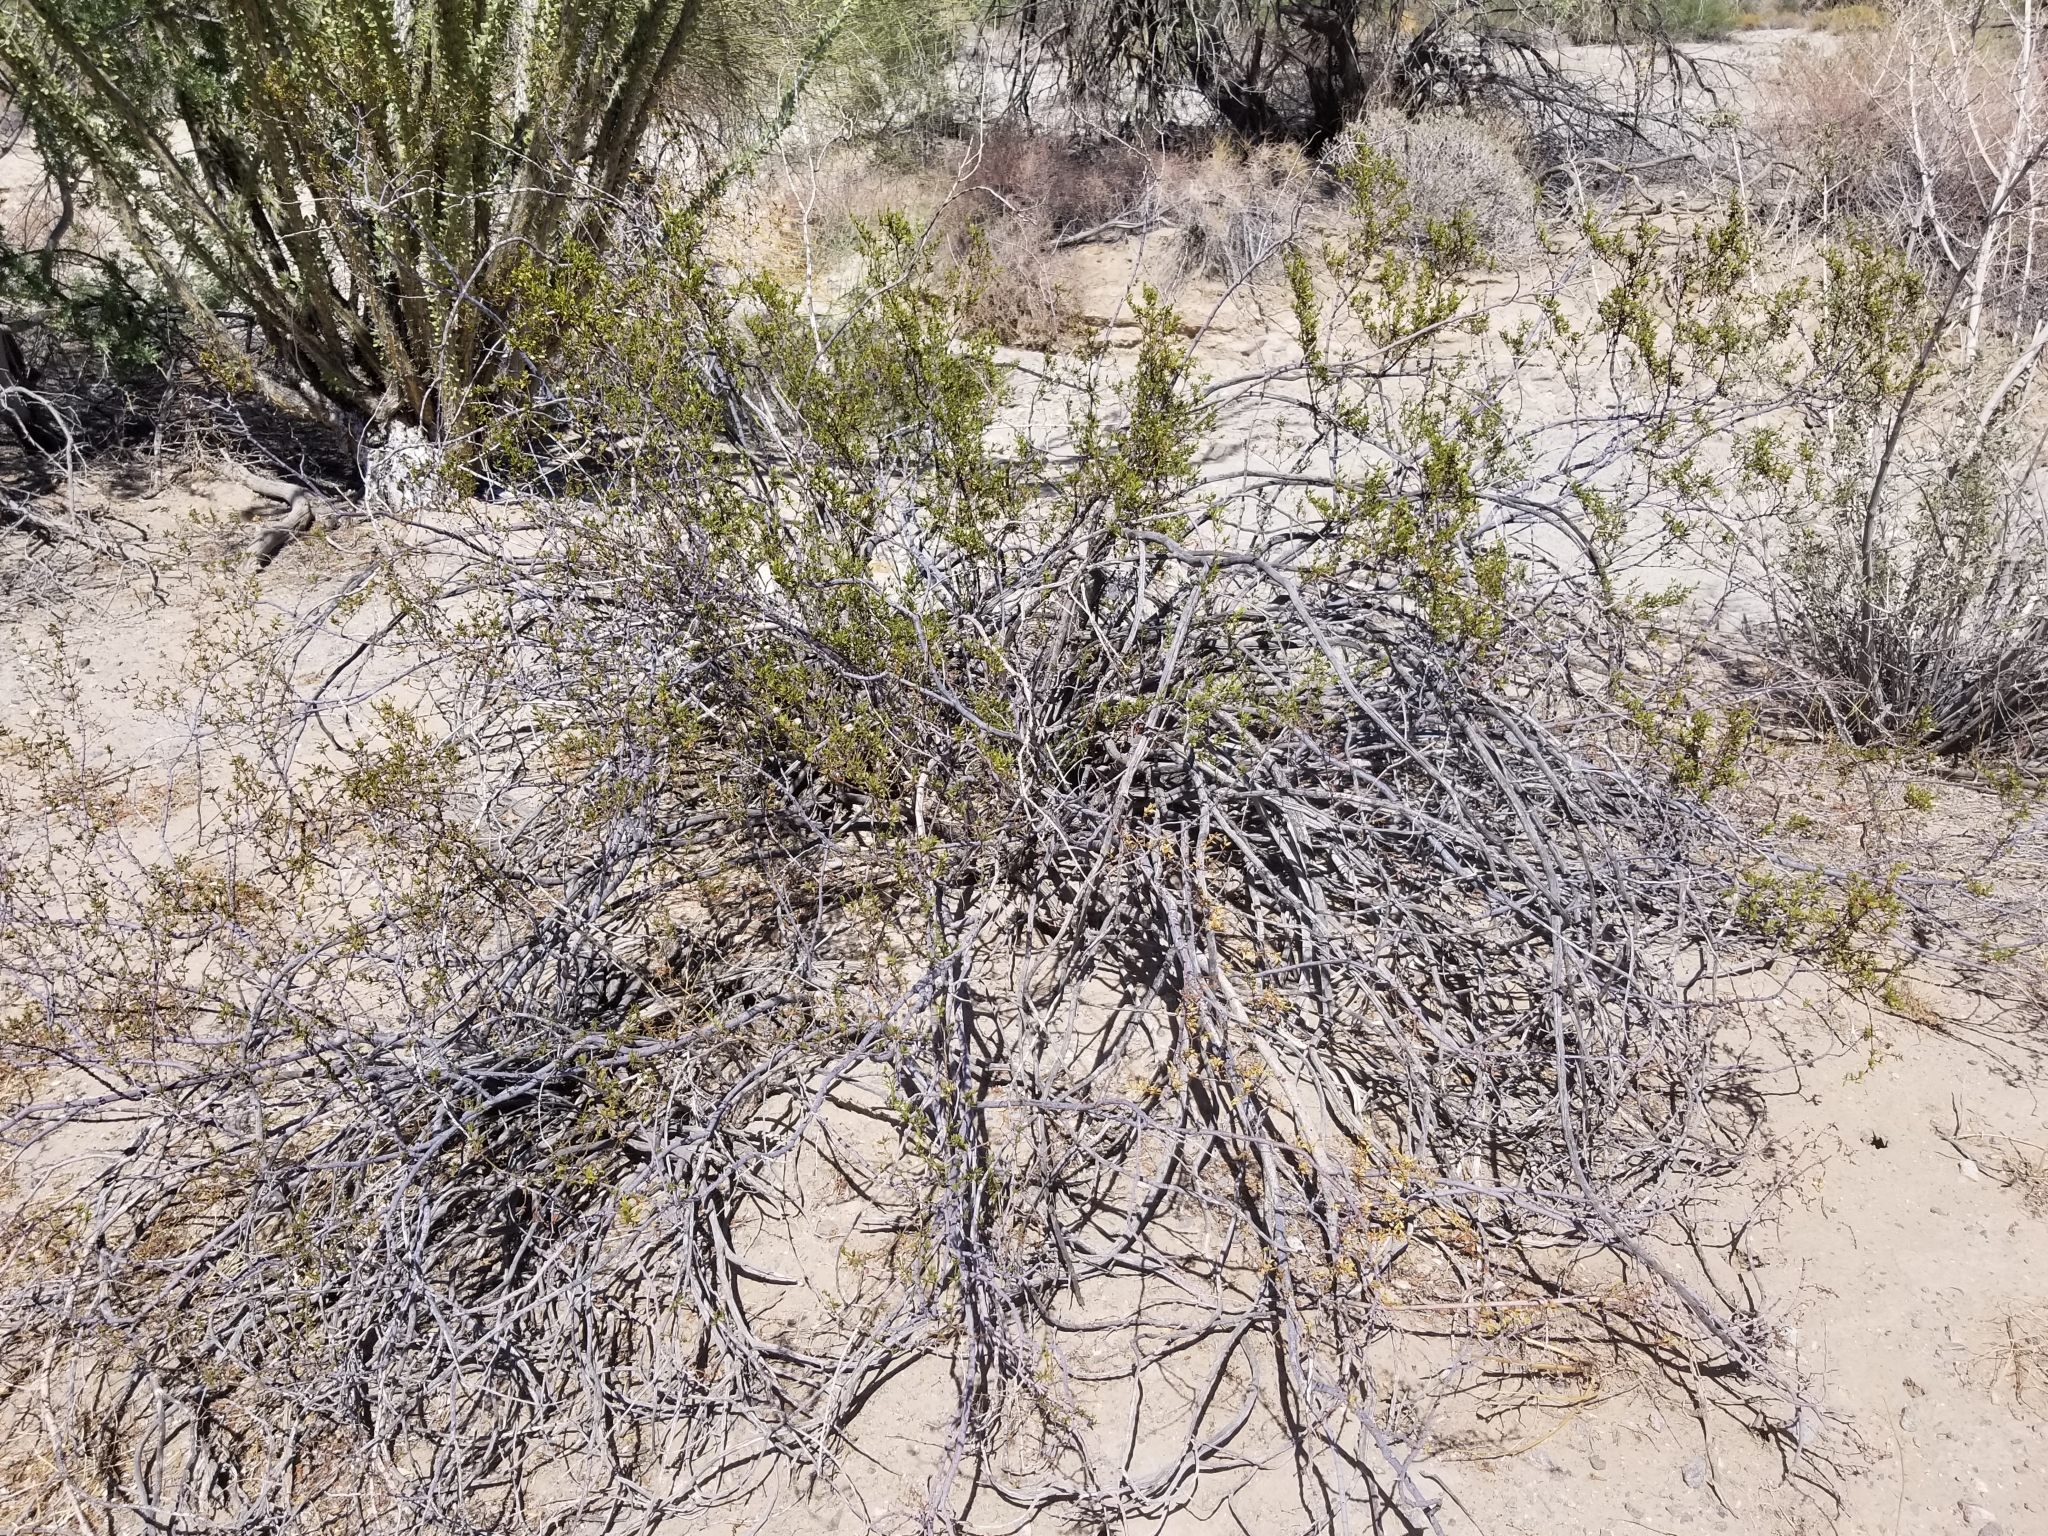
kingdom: Plantae
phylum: Tracheophyta
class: Magnoliopsida
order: Zygophyllales
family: Zygophyllaceae
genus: Larrea
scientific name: Larrea tridentata
